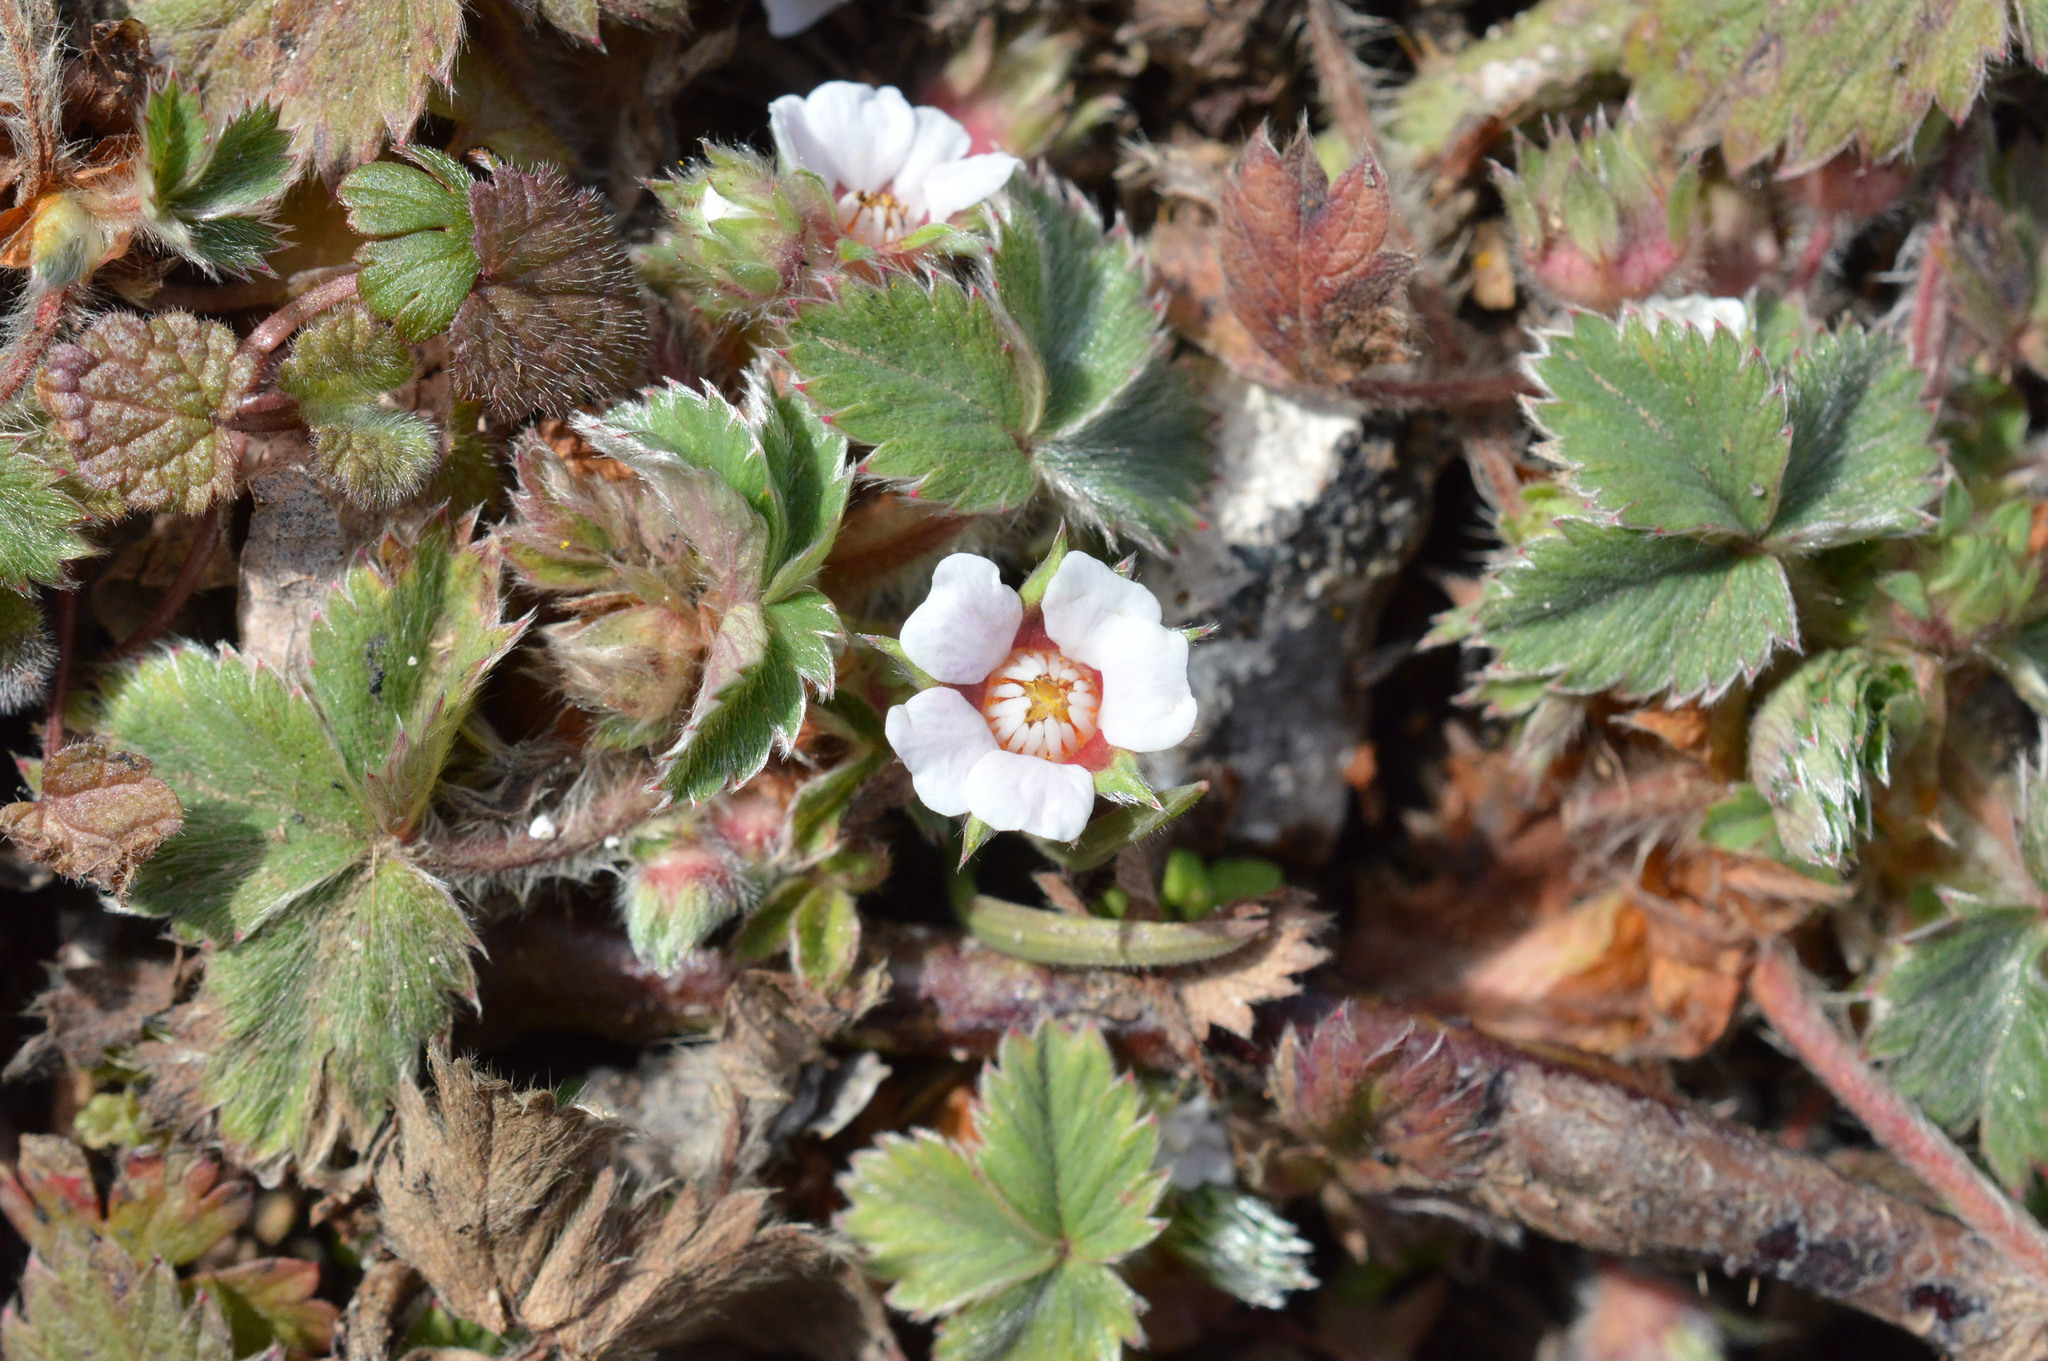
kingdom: Plantae
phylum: Tracheophyta
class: Magnoliopsida
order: Rosales
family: Rosaceae
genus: Potentilla
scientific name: Potentilla micrantha
